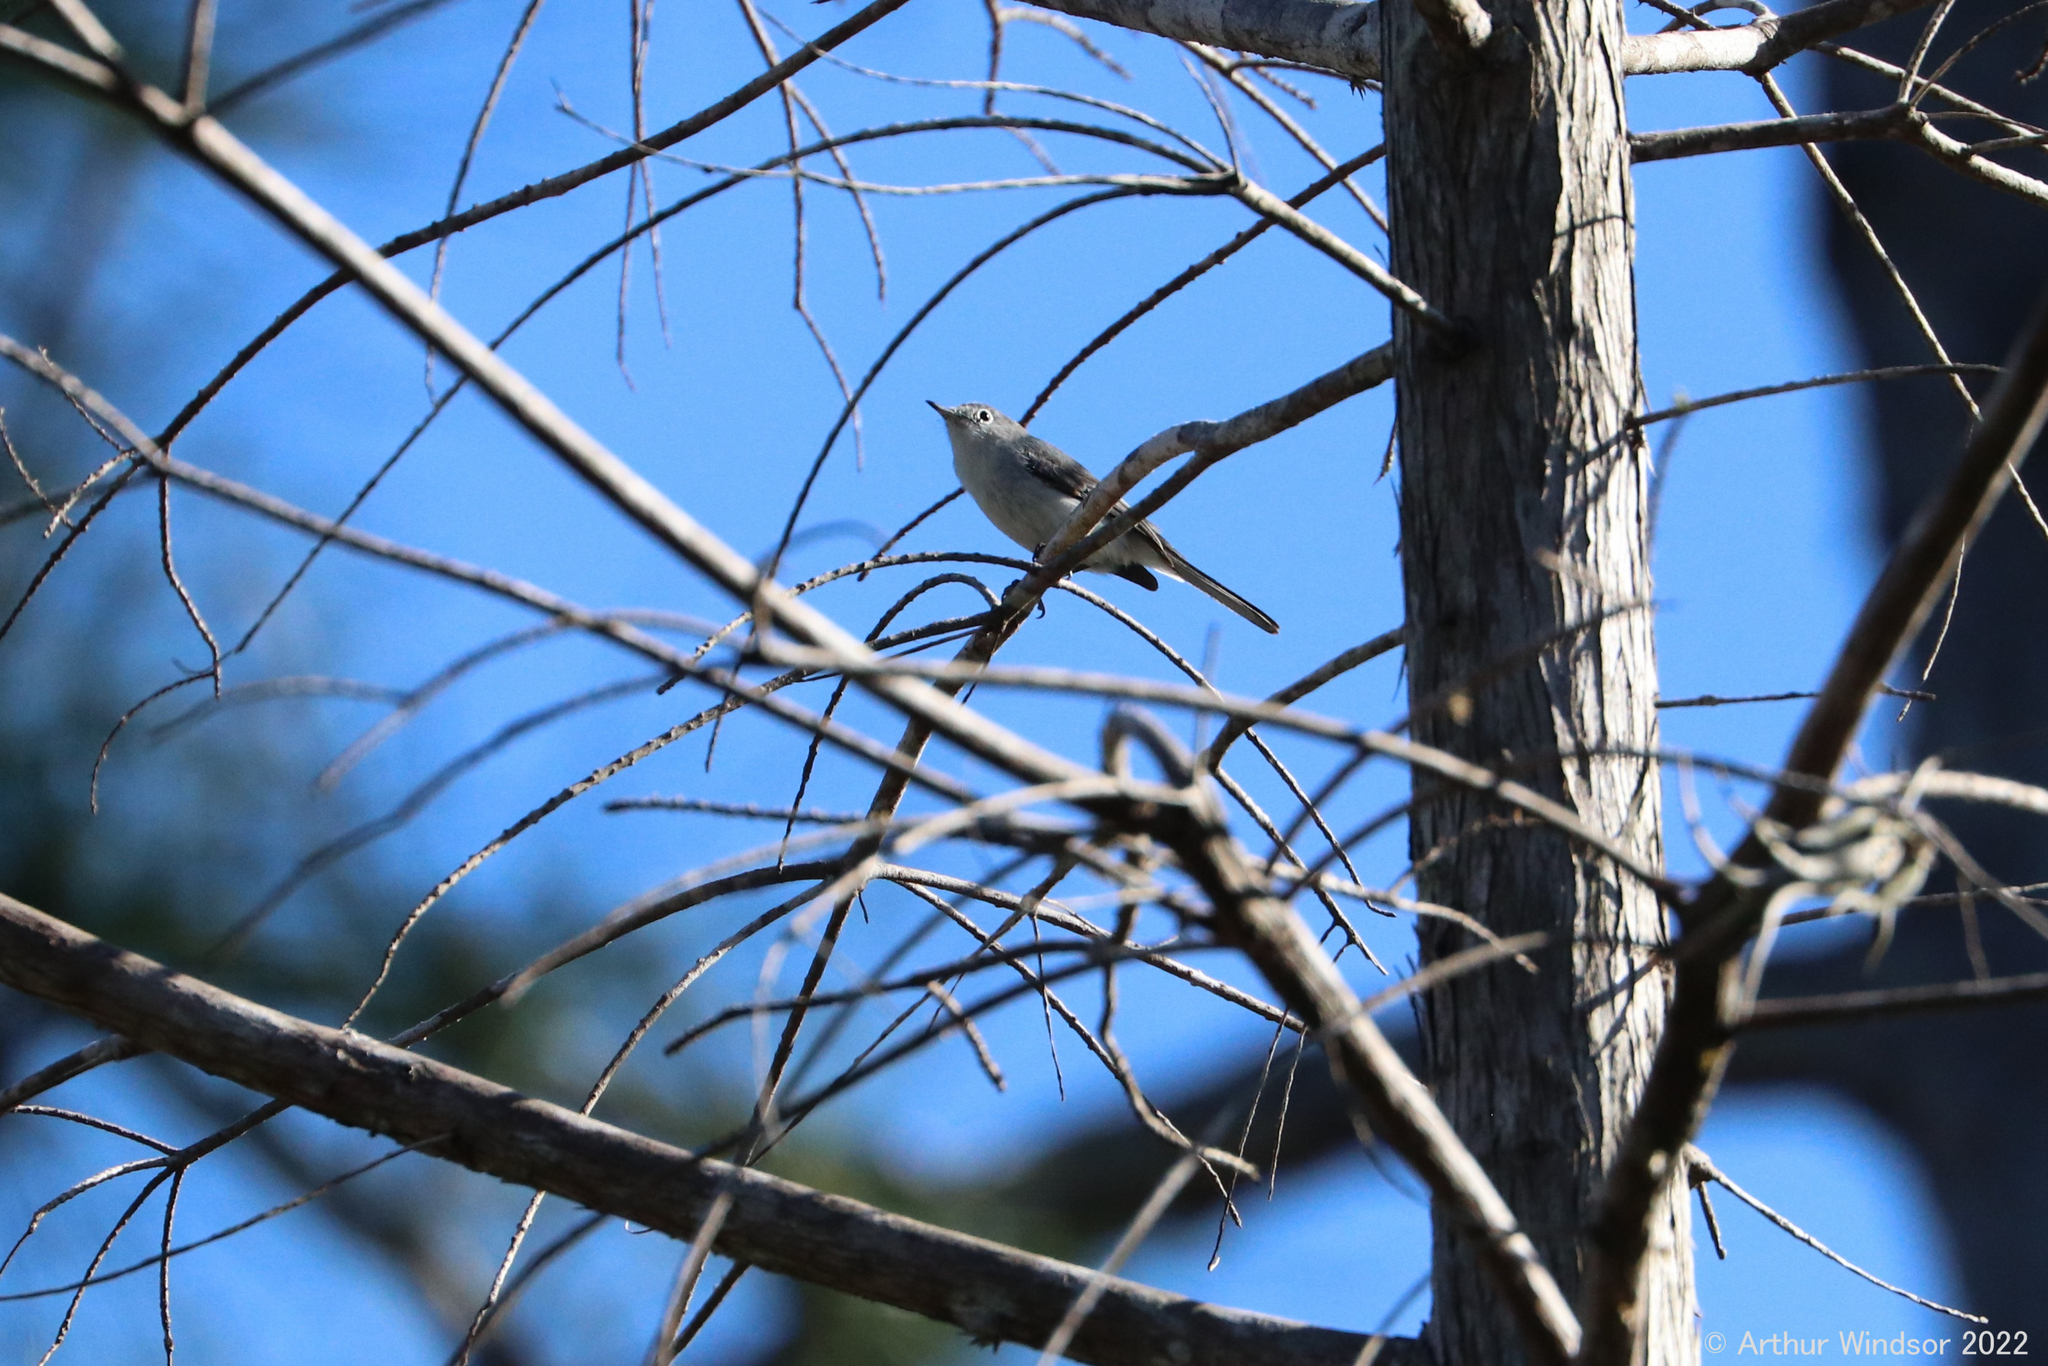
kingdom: Animalia
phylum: Chordata
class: Aves
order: Passeriformes
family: Polioptilidae
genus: Polioptila
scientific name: Polioptila caerulea
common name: Blue-gray gnatcatcher
